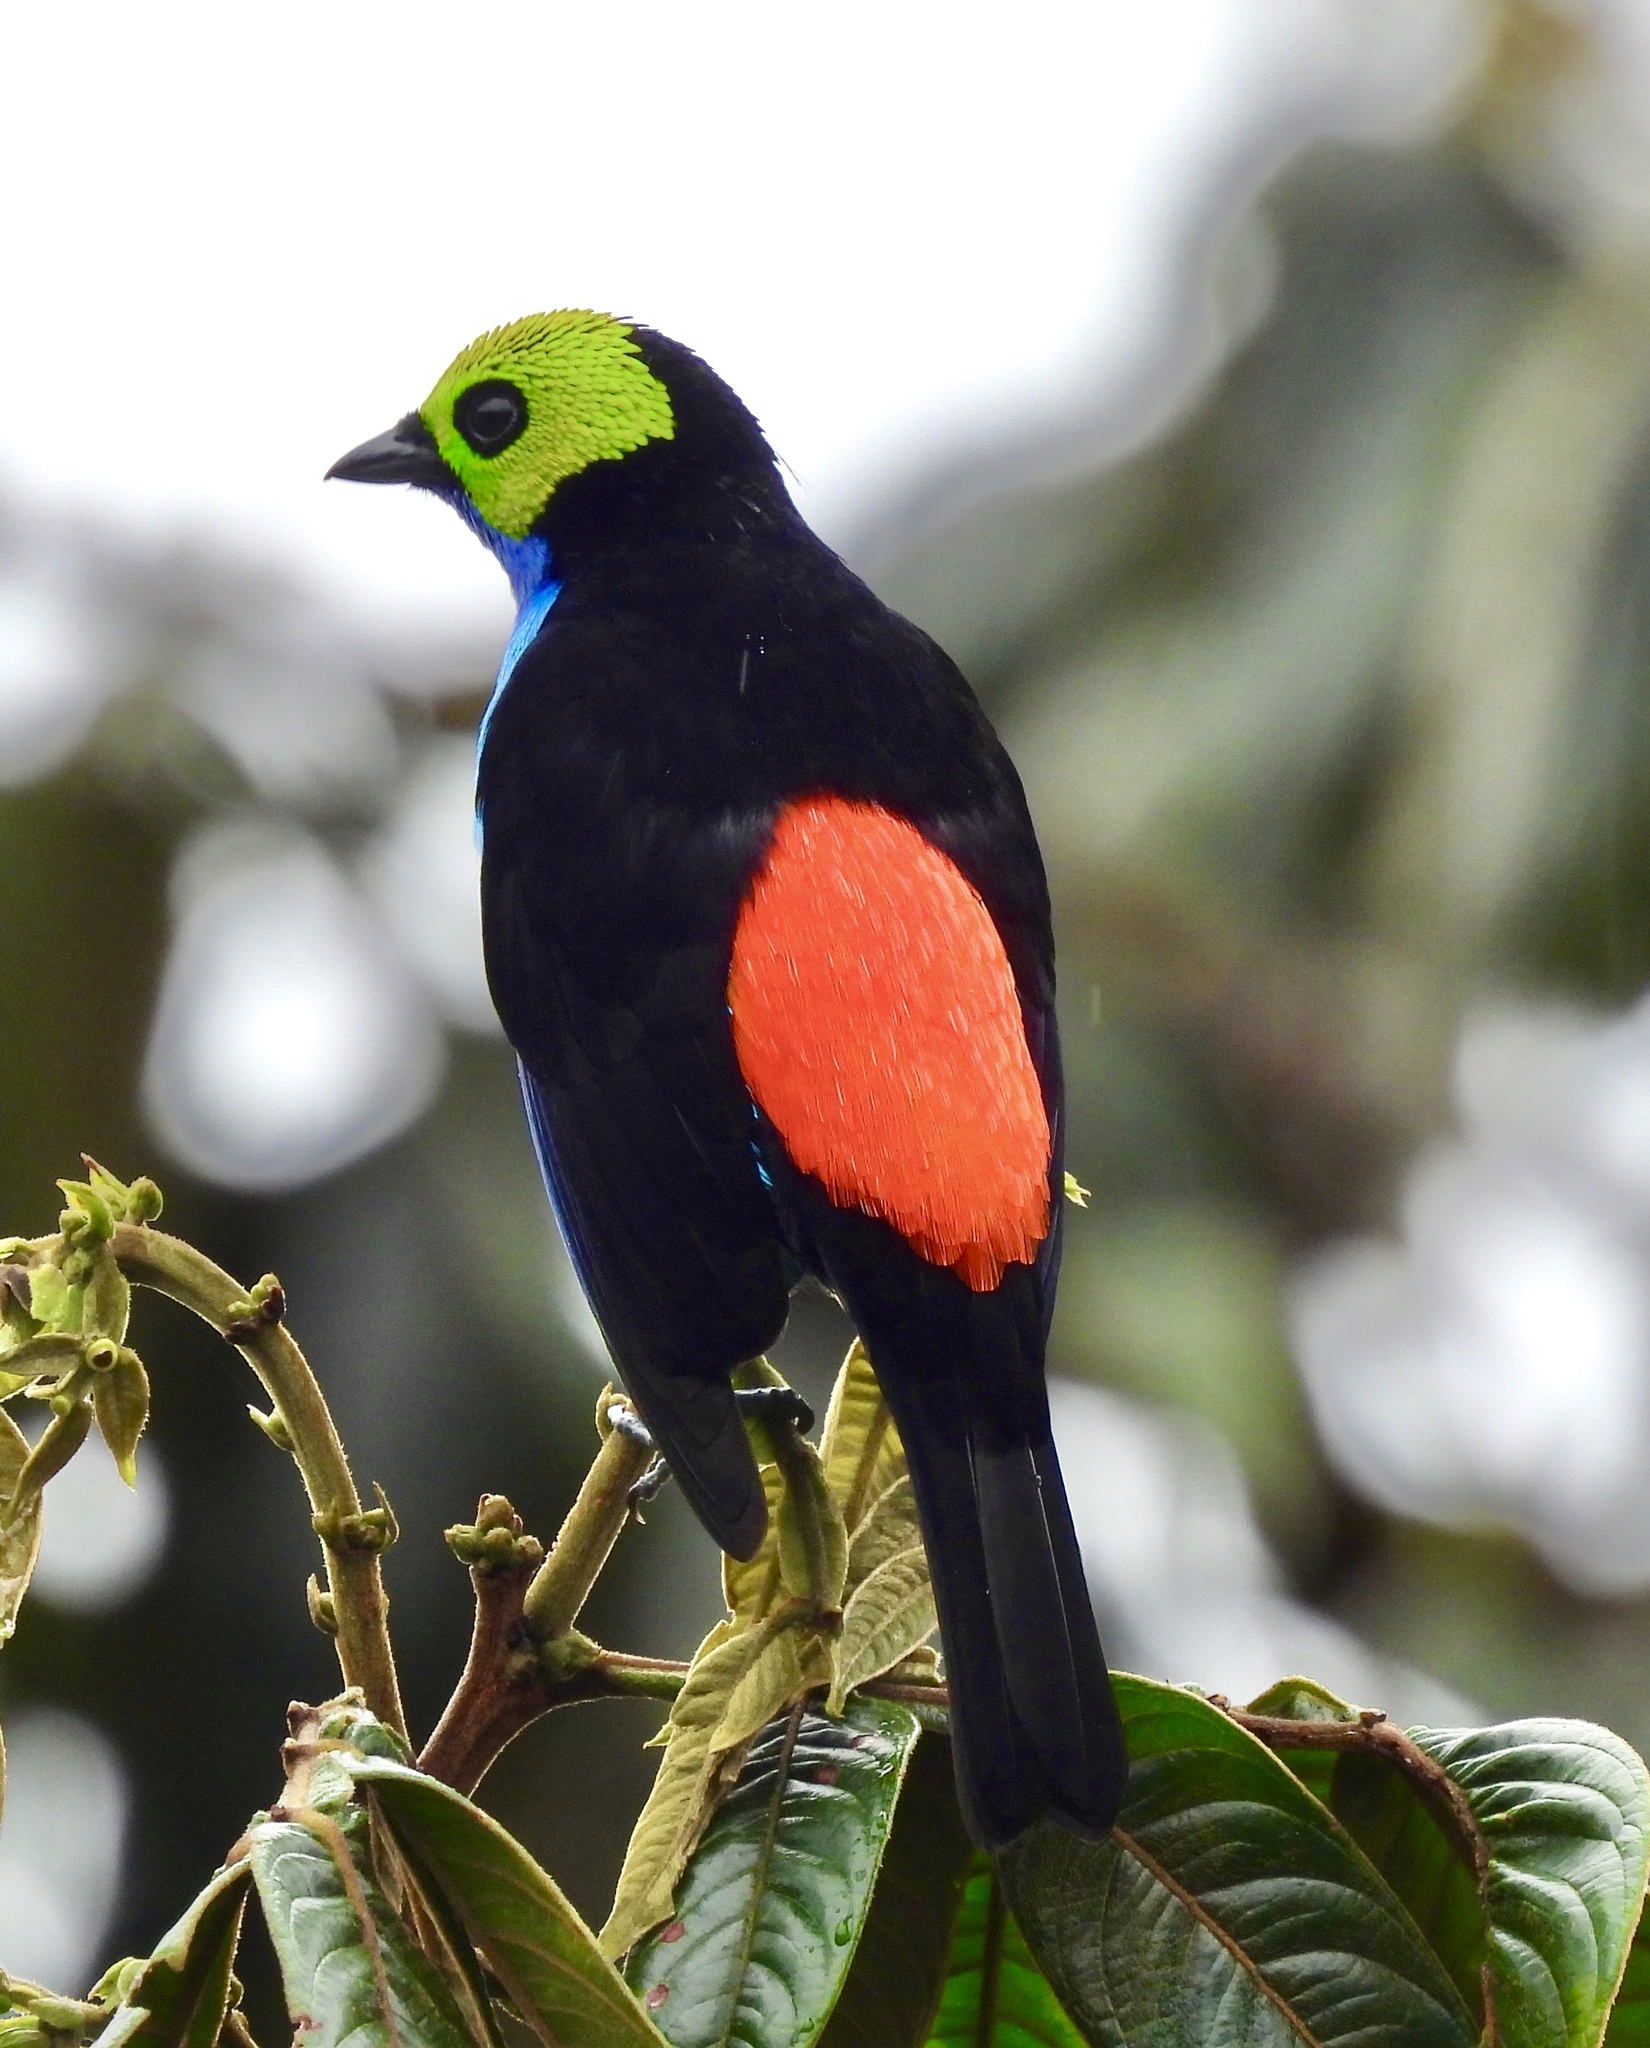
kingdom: Animalia
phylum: Chordata
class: Aves
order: Passeriformes
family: Thraupidae
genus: Tangara
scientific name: Tangara chilensis
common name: Paradise tanager
